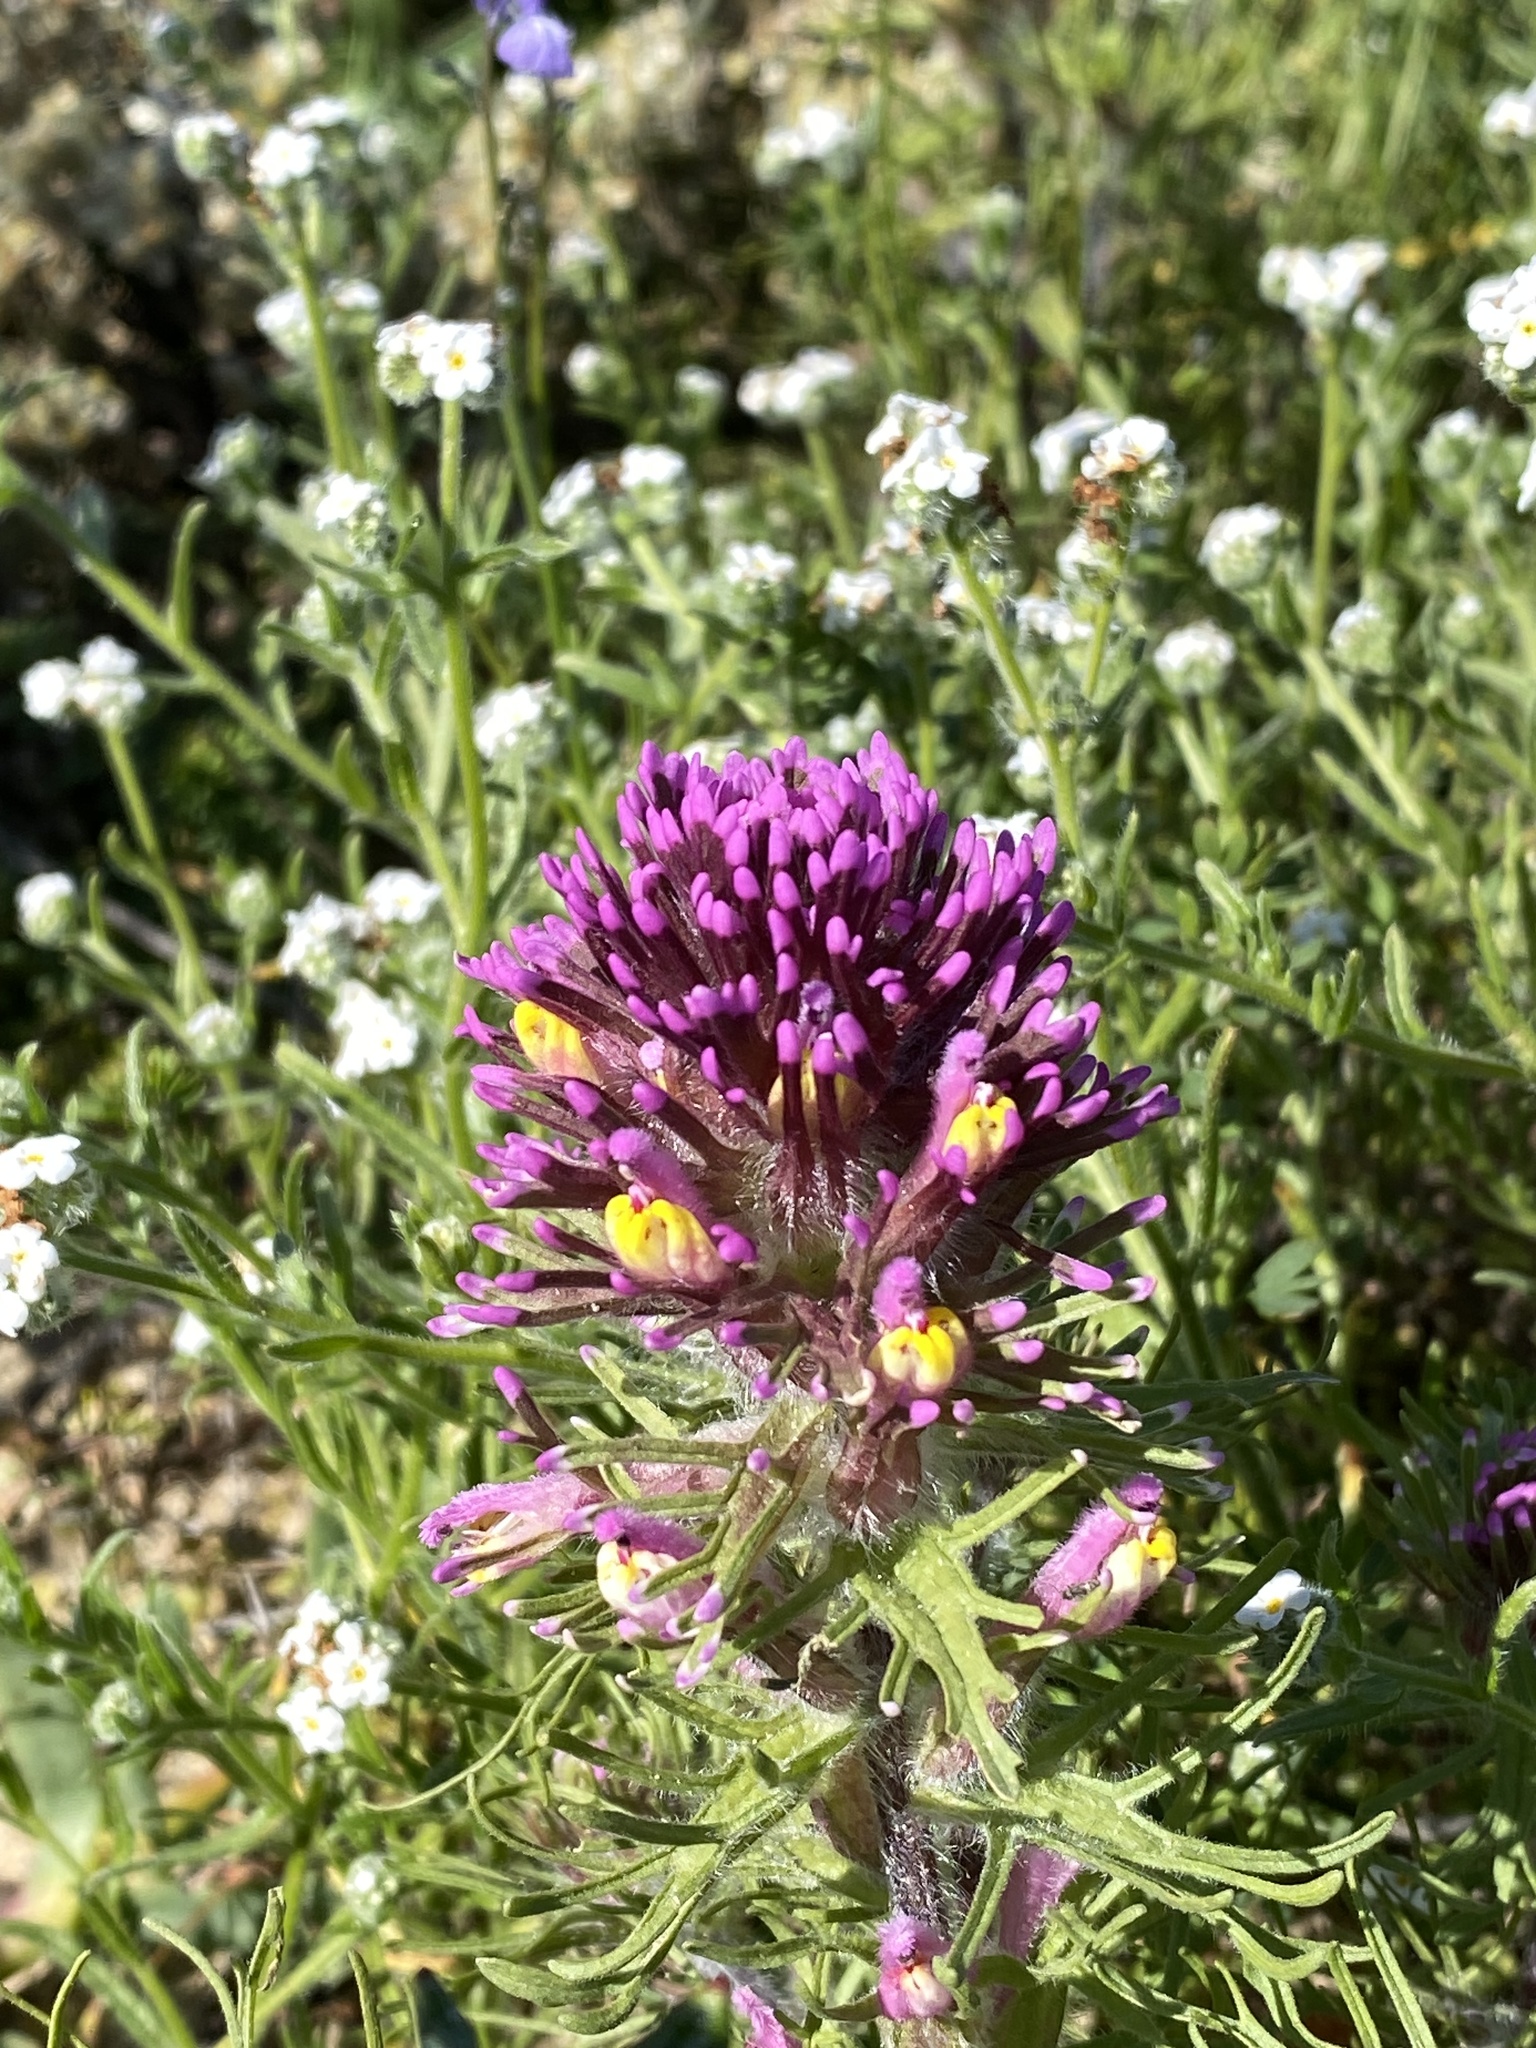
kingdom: Plantae
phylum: Tracheophyta
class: Magnoliopsida
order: Lamiales
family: Orobanchaceae
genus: Castilleja
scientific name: Castilleja exserta
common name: Purple owl-clover
